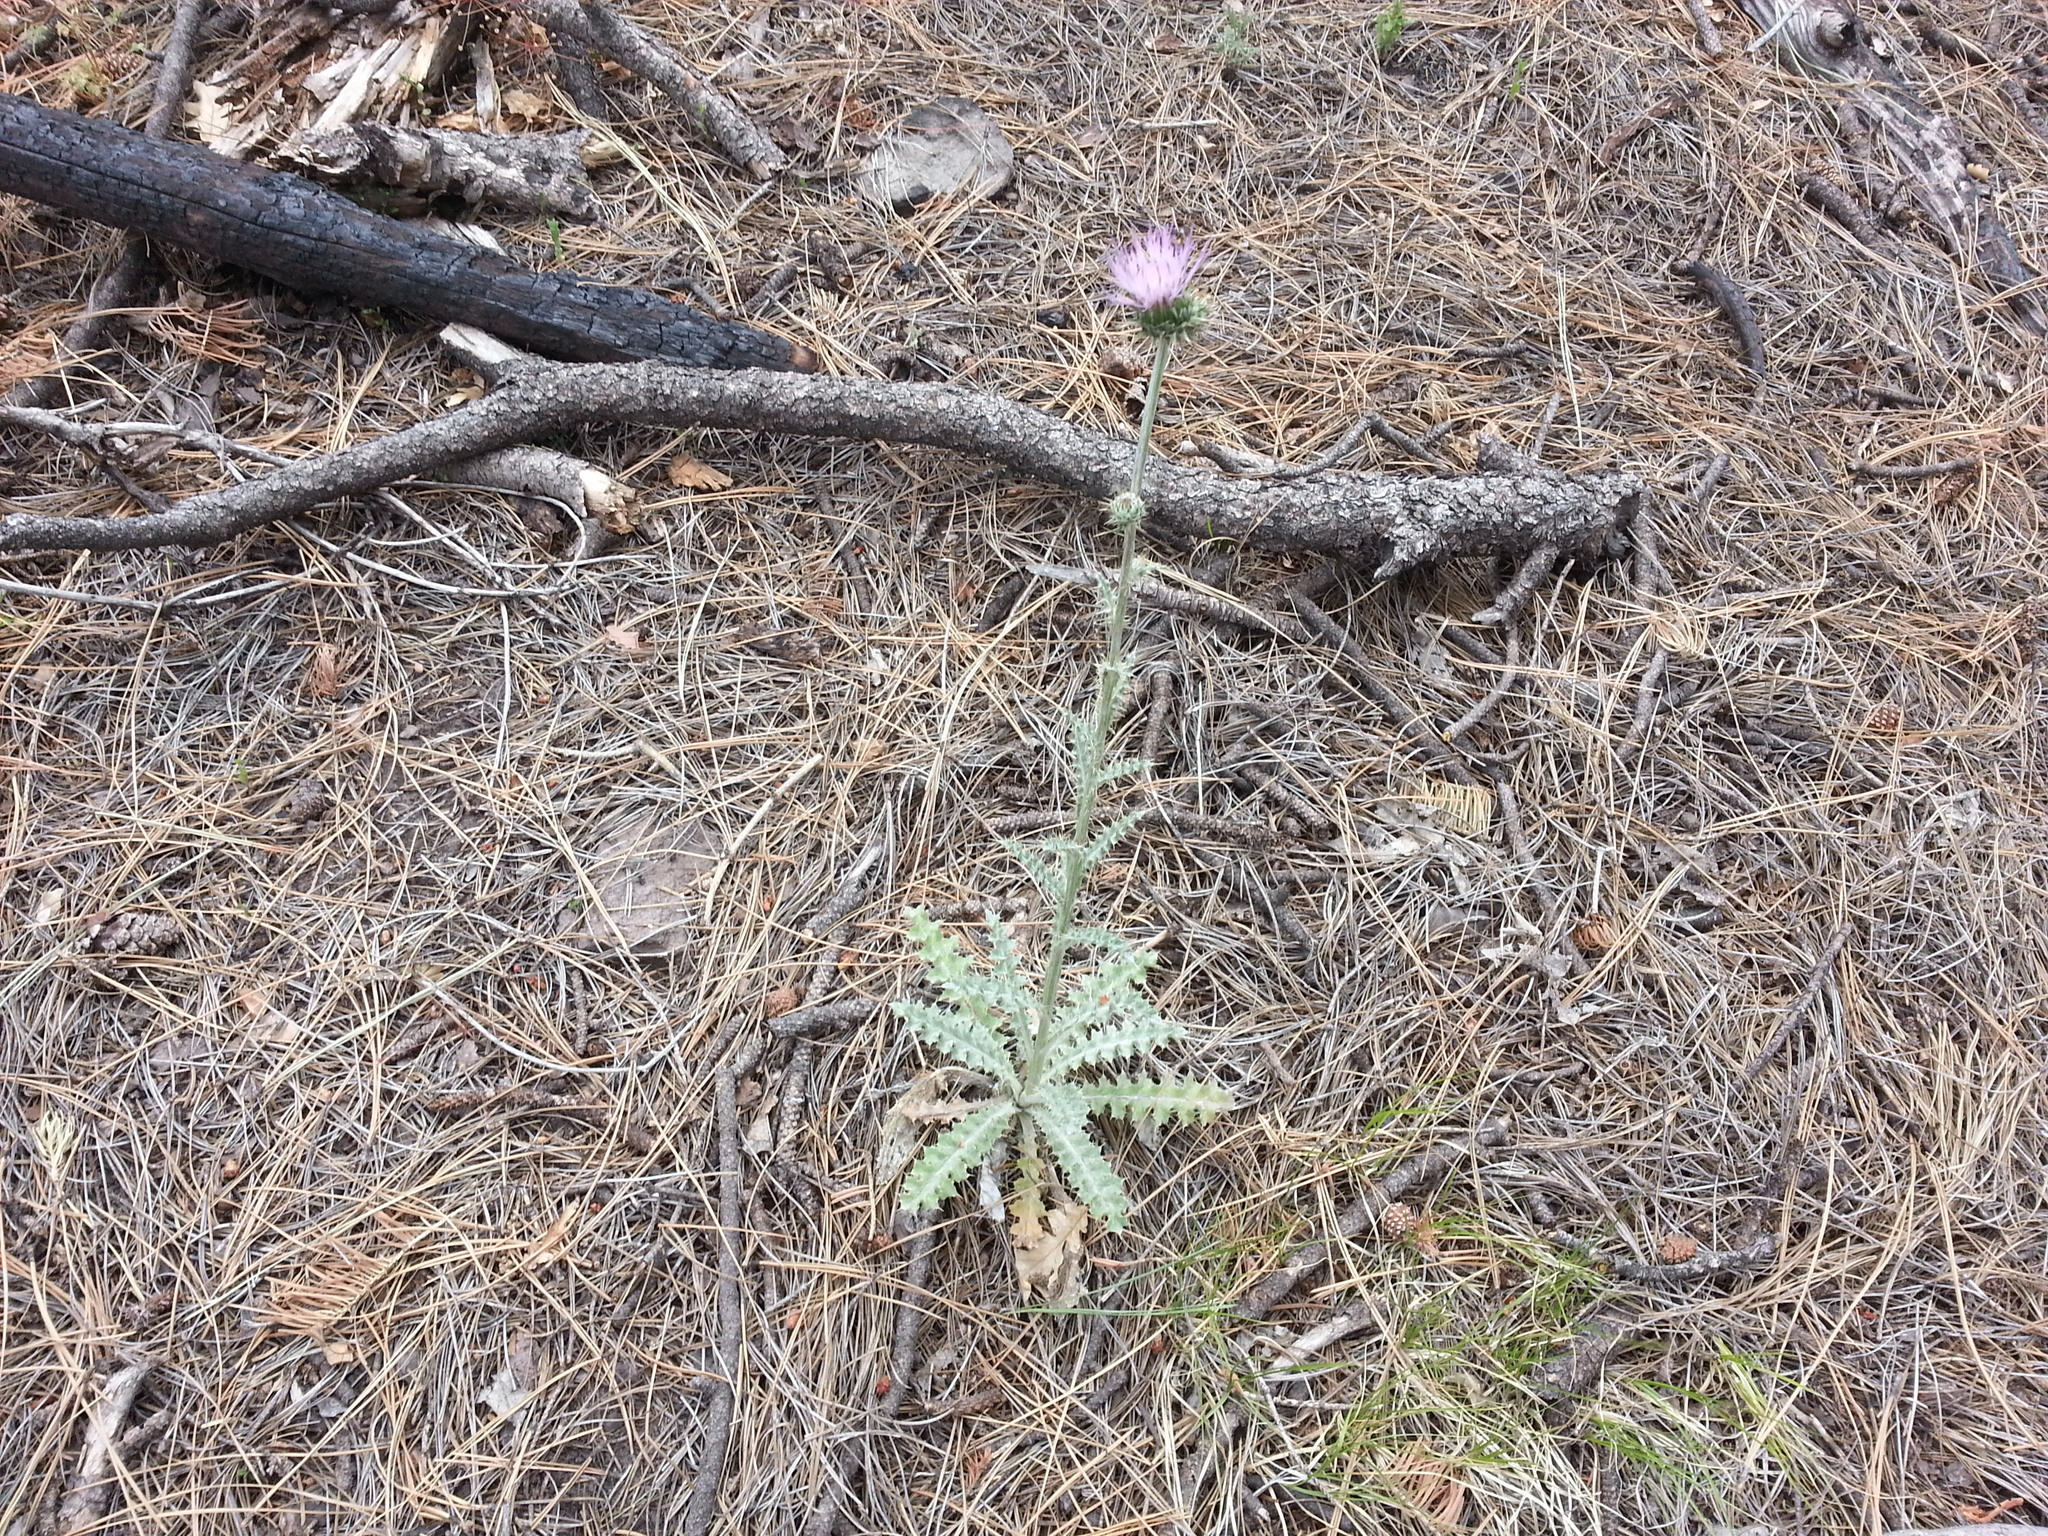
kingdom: Plantae
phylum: Tracheophyta
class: Magnoliopsida
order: Asterales
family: Asteraceae
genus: Cirsium
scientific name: Cirsium neomexicanum
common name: New mexico thistle
